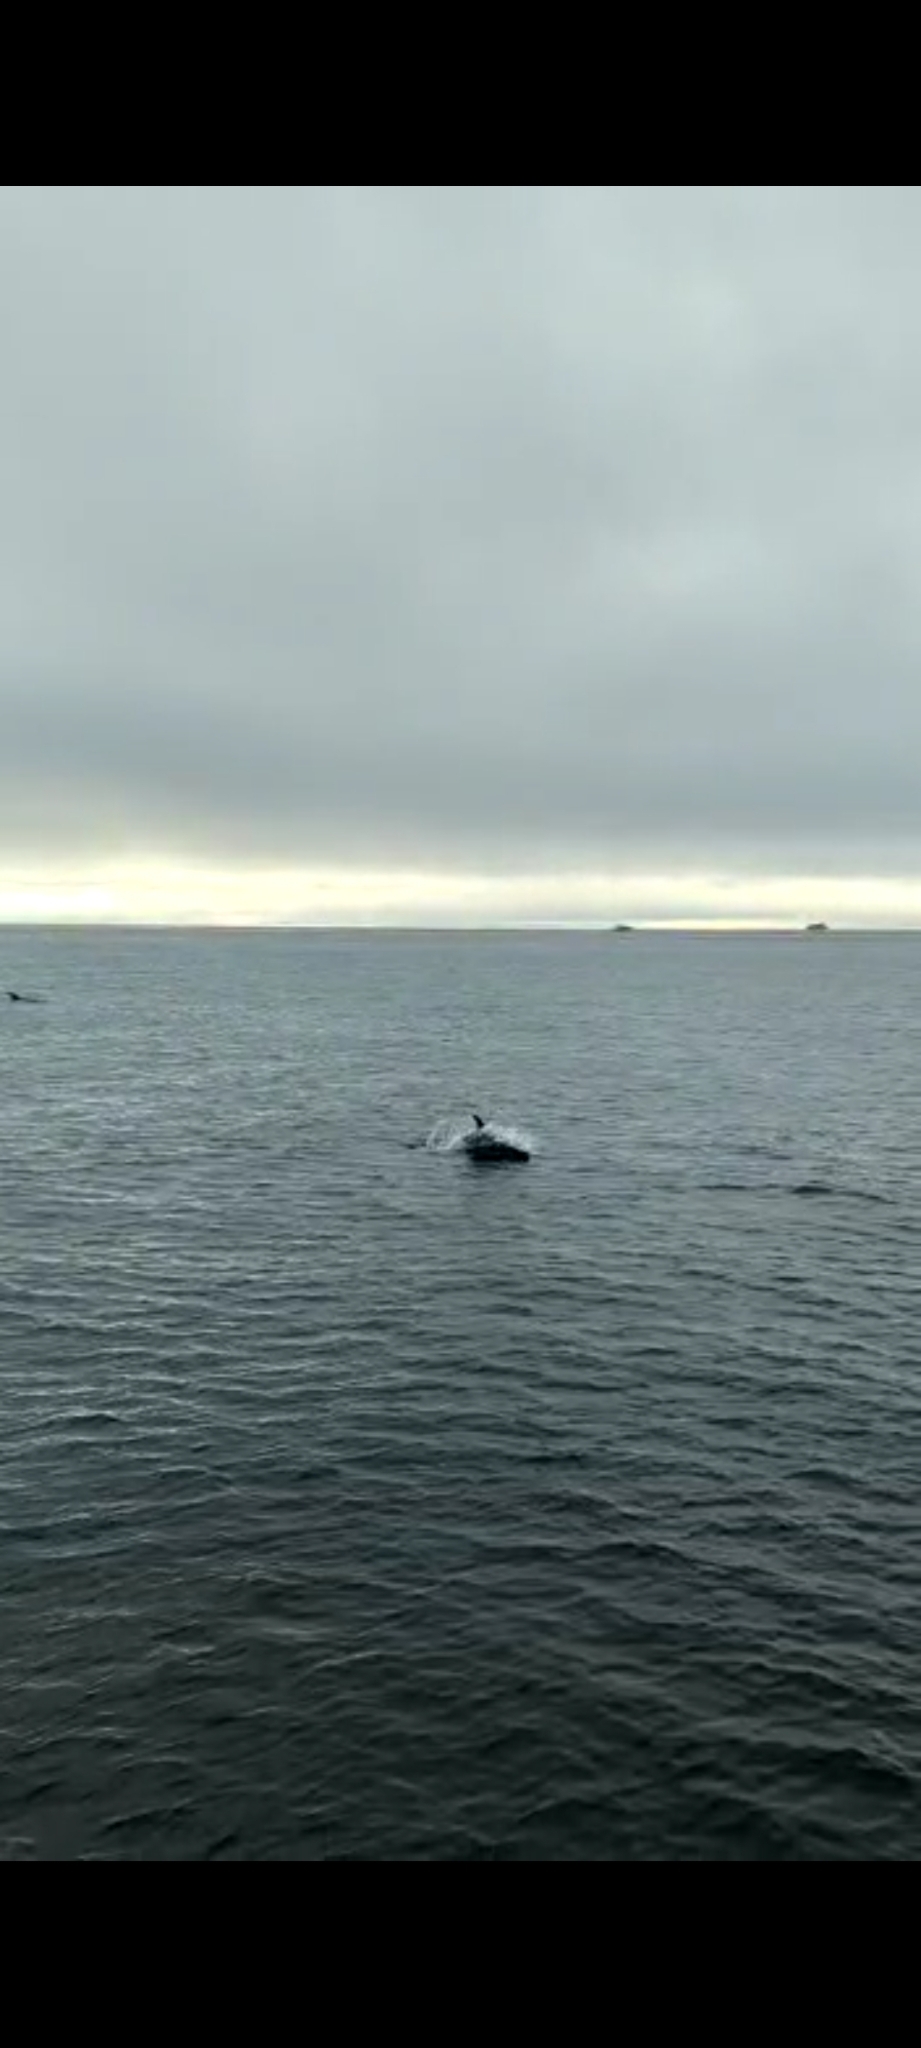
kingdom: Animalia
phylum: Chordata
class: Mammalia
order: Cetacea
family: Delphinidae
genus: Lagenorhynchus
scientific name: Lagenorhynchus albirostris
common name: White-beaked dolphin
